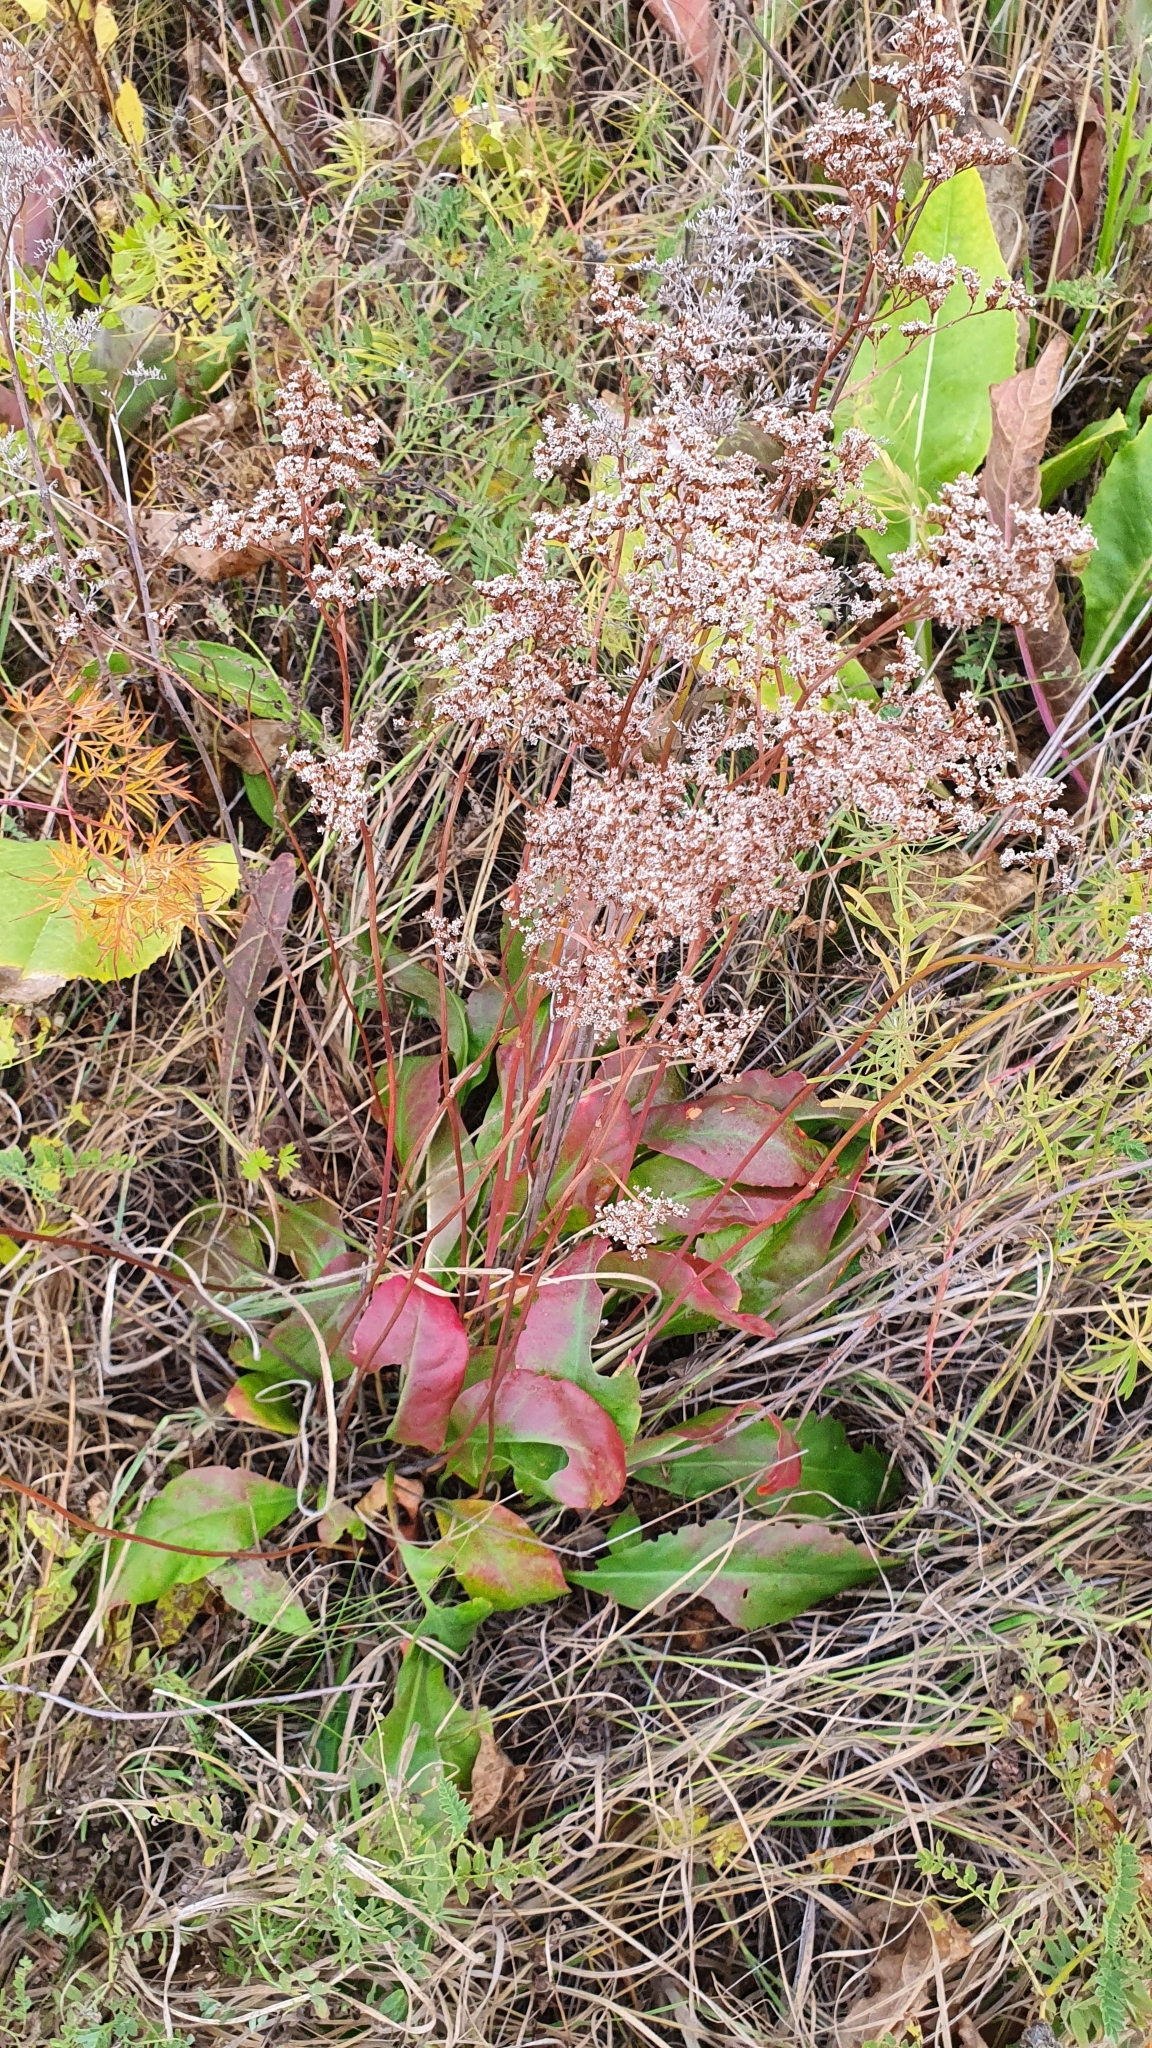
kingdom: Plantae
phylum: Tracheophyta
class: Magnoliopsida
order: Caryophyllales
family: Plumbaginaceae
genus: Limonium
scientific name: Limonium gmelini
